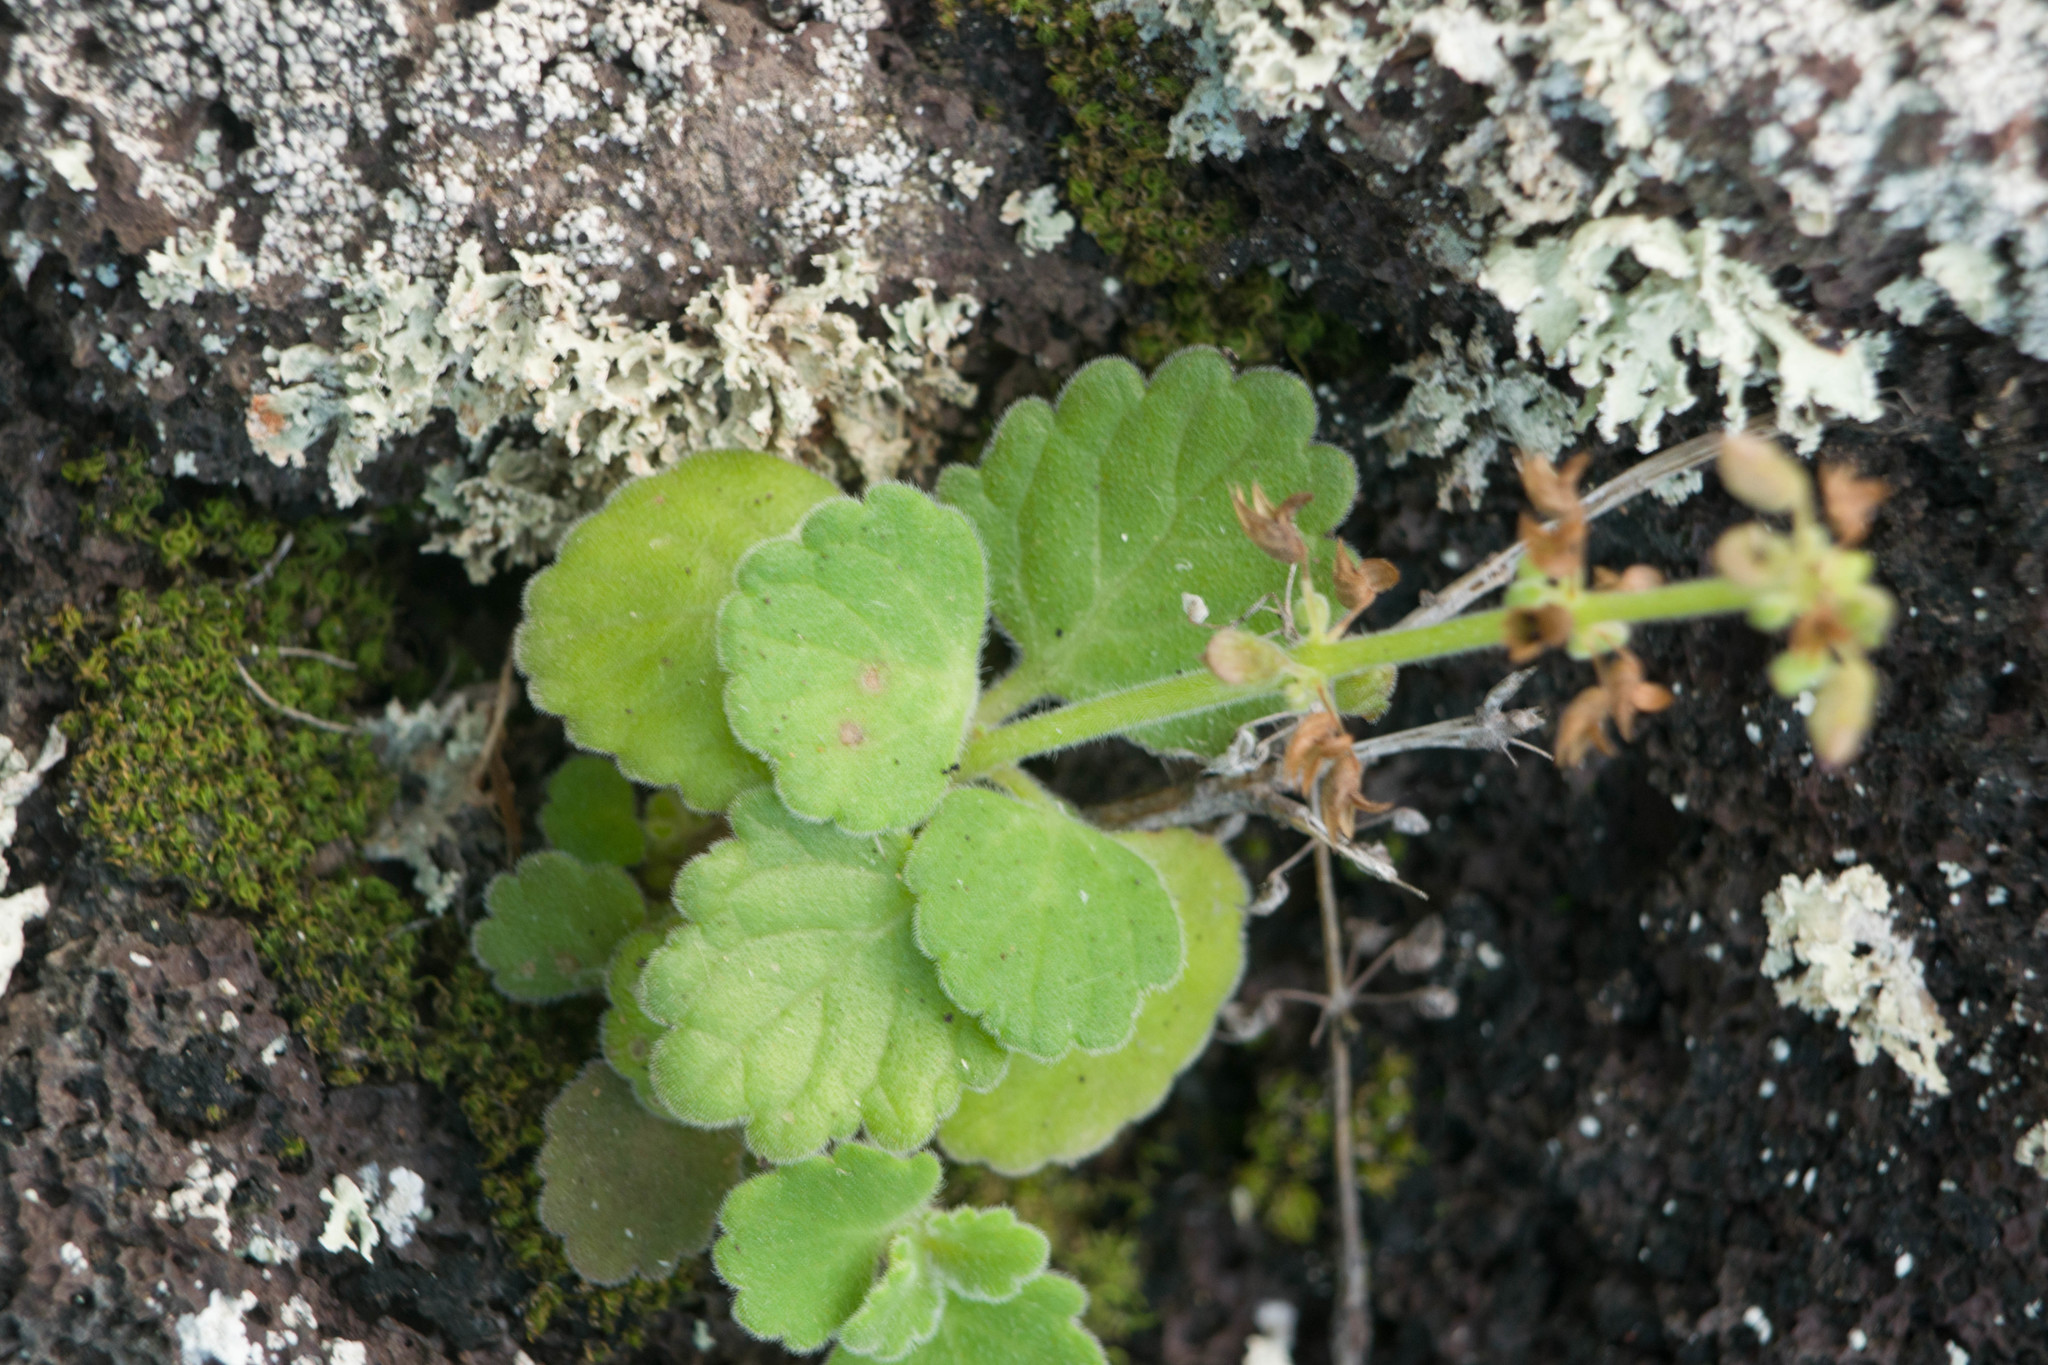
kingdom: Plantae
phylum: Tracheophyta
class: Magnoliopsida
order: Lamiales
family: Lamiaceae
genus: Coleus
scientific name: Coleus australis
